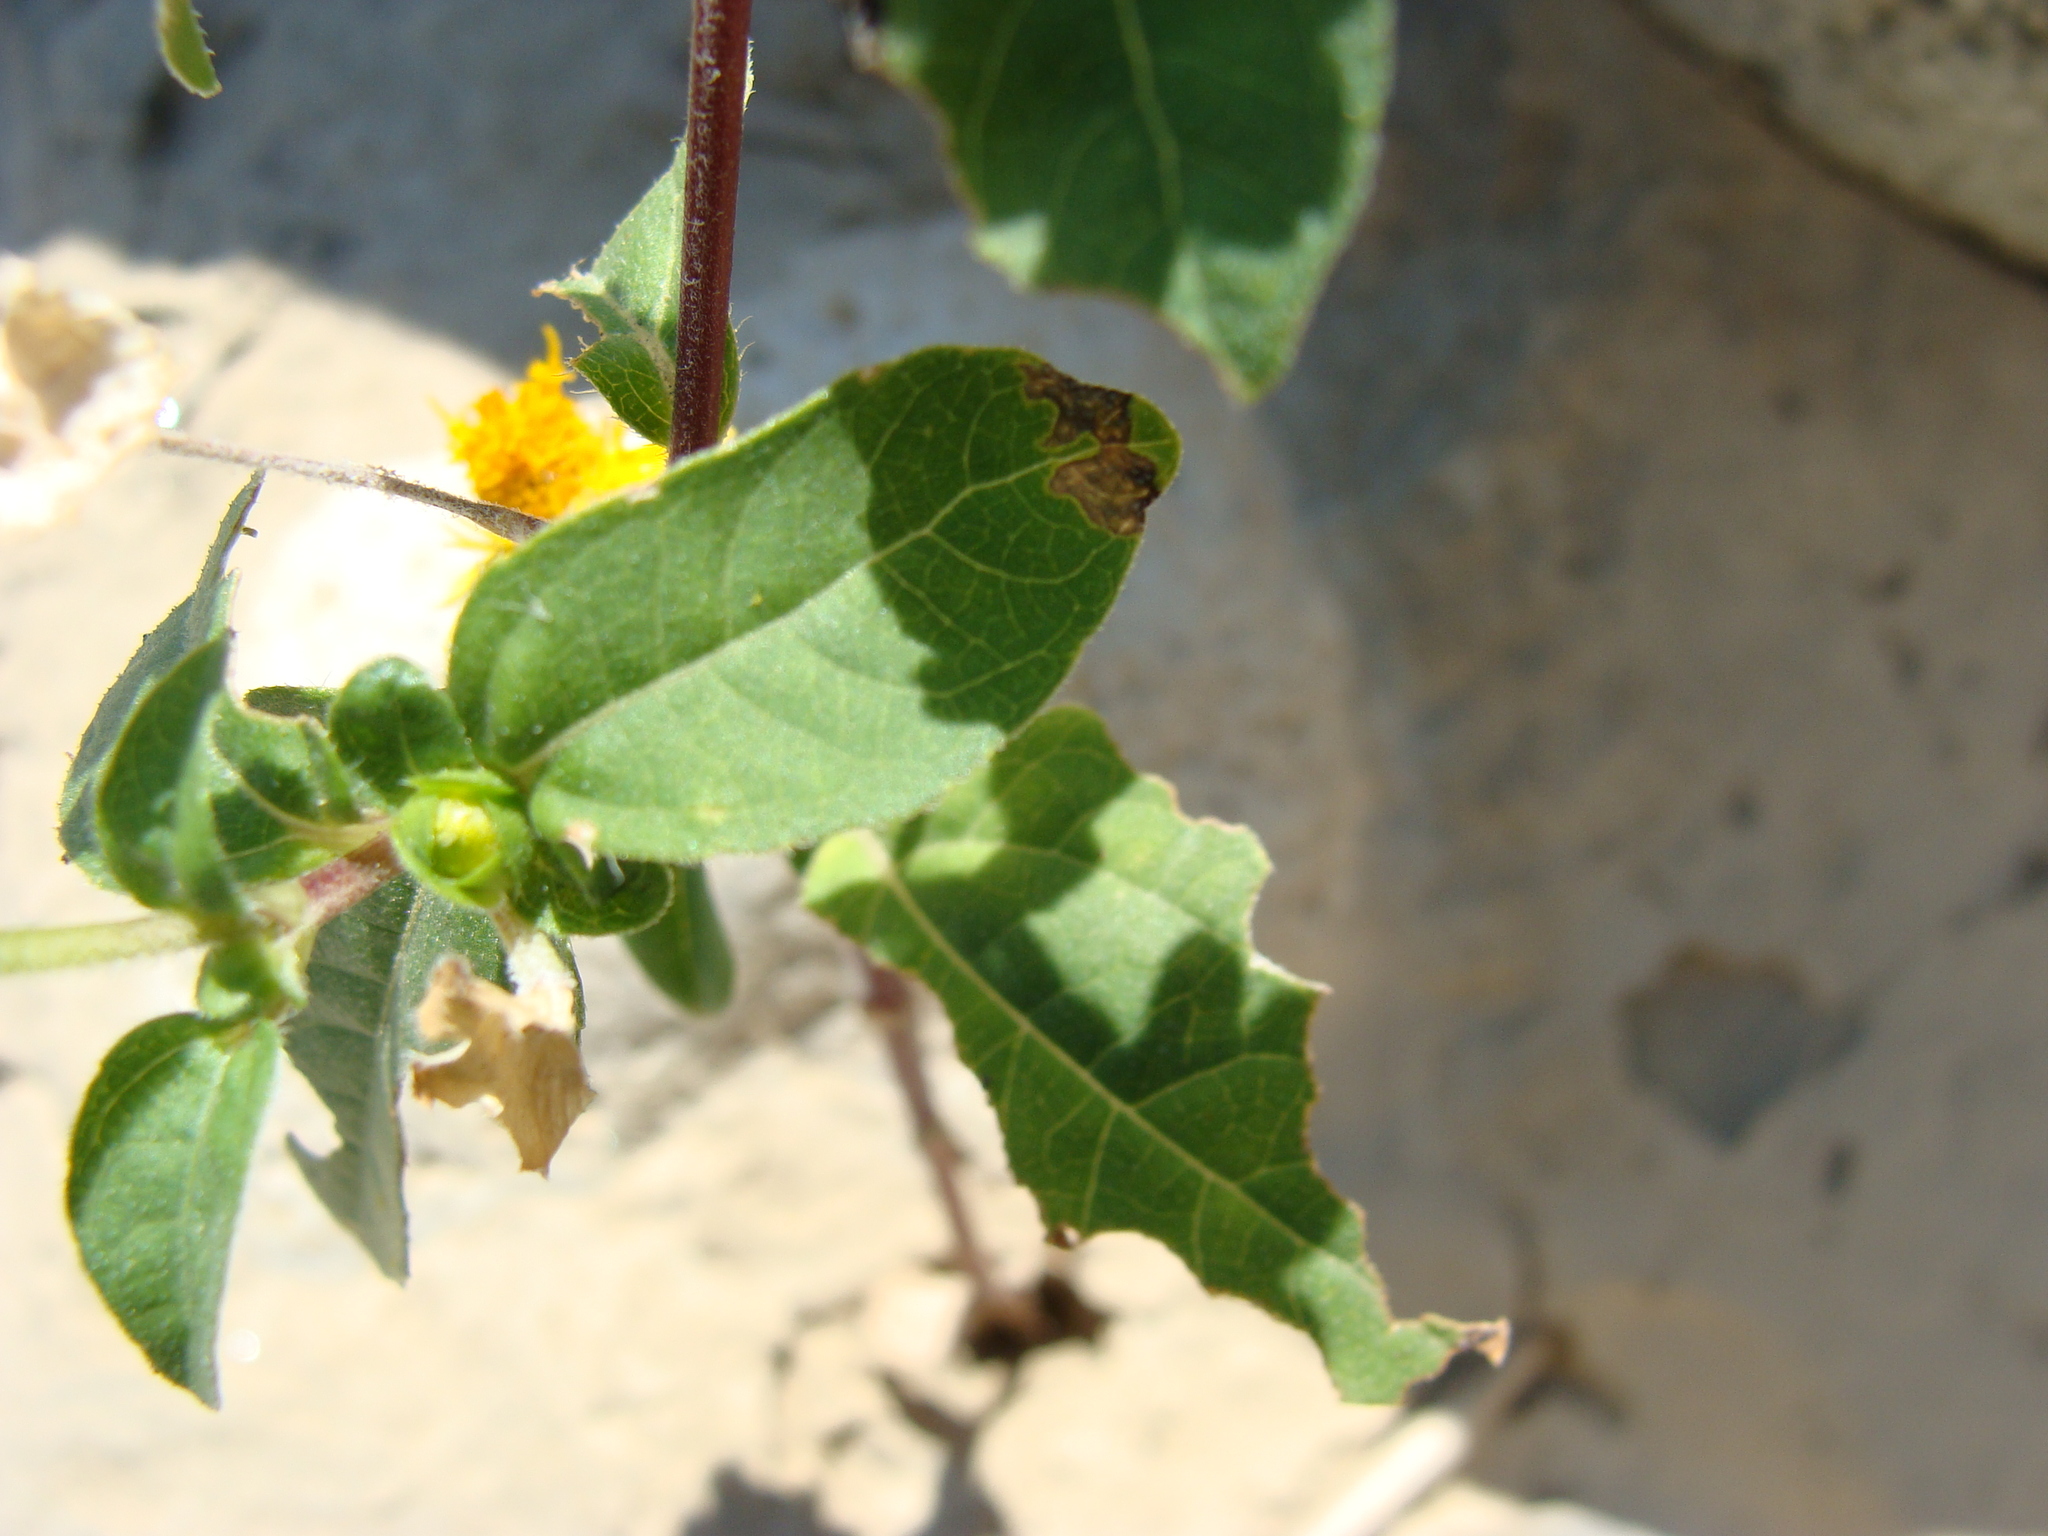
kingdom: Plantae
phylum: Tracheophyta
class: Magnoliopsida
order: Asterales
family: Asteraceae
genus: Melampodium
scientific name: Melampodium divaricatum
